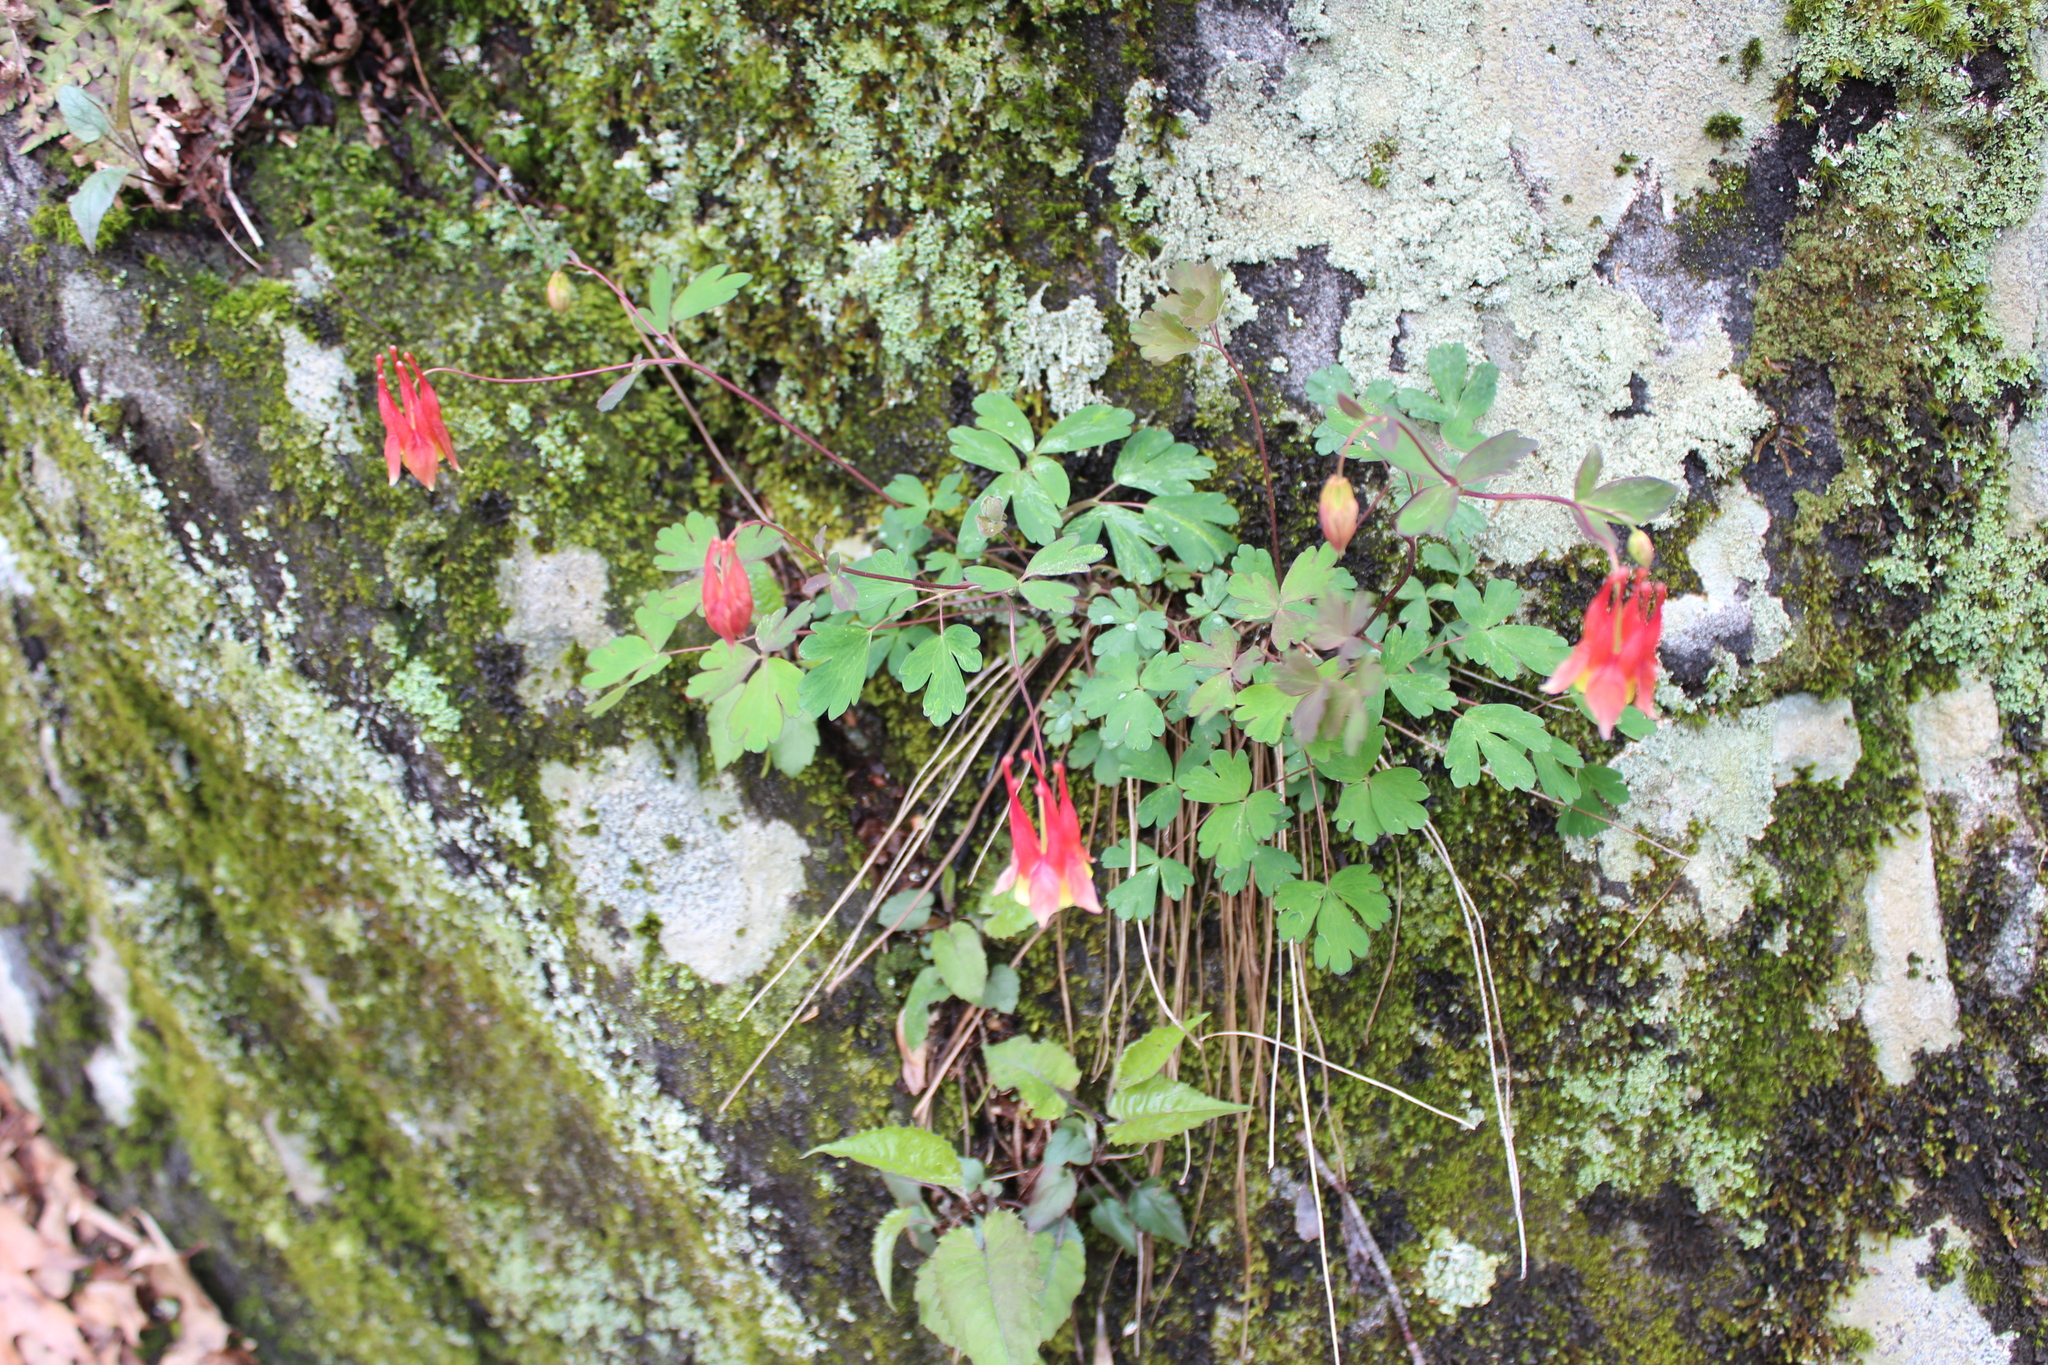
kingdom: Plantae
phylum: Tracheophyta
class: Magnoliopsida
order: Ranunculales
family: Ranunculaceae
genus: Aquilegia
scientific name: Aquilegia canadensis
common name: American columbine
